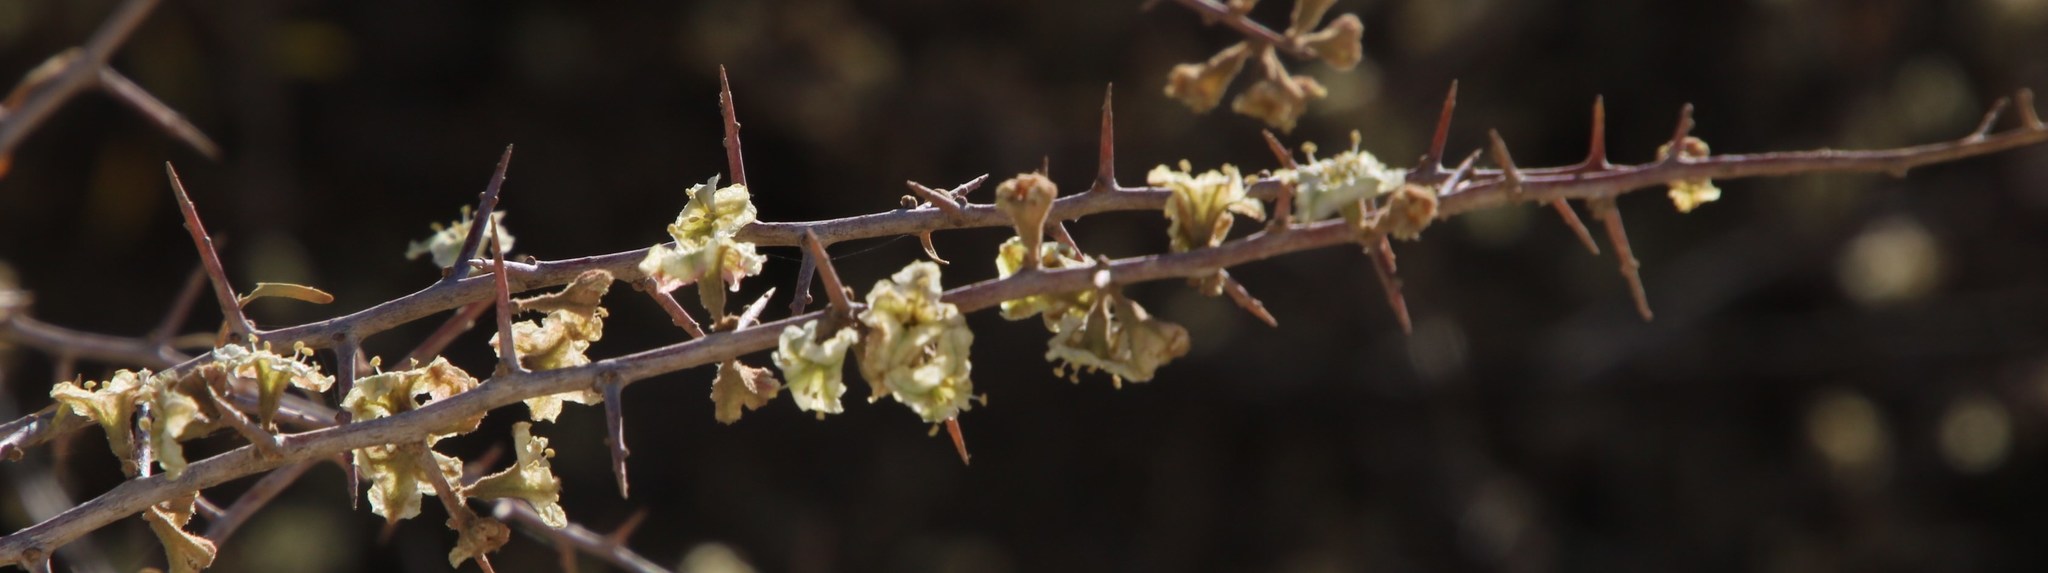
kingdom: Plantae
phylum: Tracheophyta
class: Magnoliopsida
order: Caryophyllales
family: Nyctaginaceae
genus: Phaeoptilum
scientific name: Phaeoptilum spinosum
